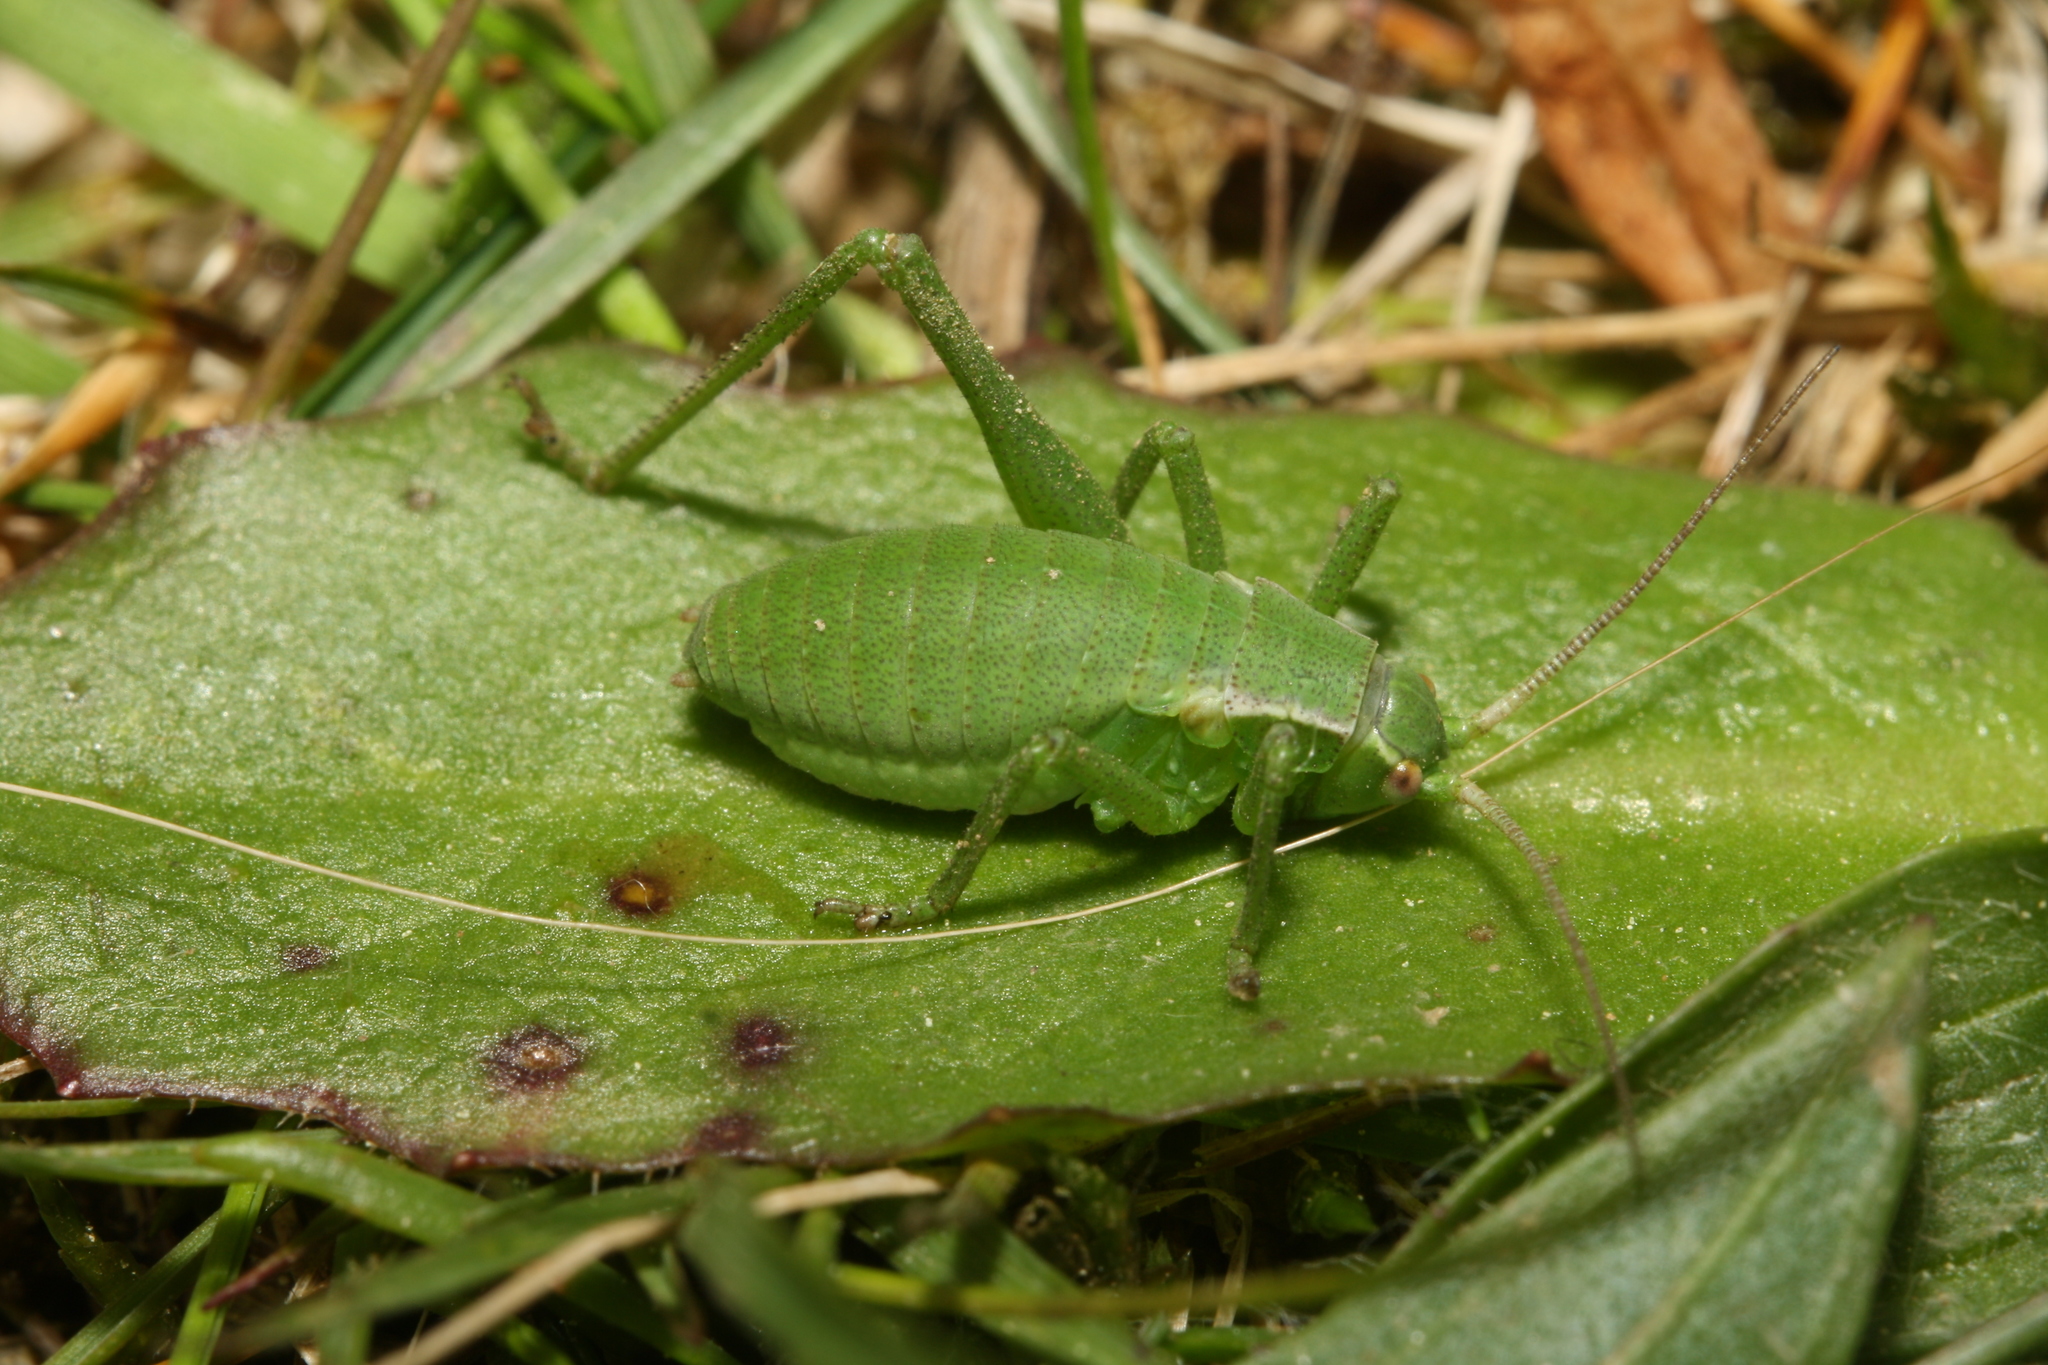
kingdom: Animalia
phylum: Arthropoda
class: Insecta
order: Orthoptera
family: Tettigoniidae
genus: Isophya
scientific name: Isophya camptoxypha
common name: Curve-tailed plump bush-cricket
